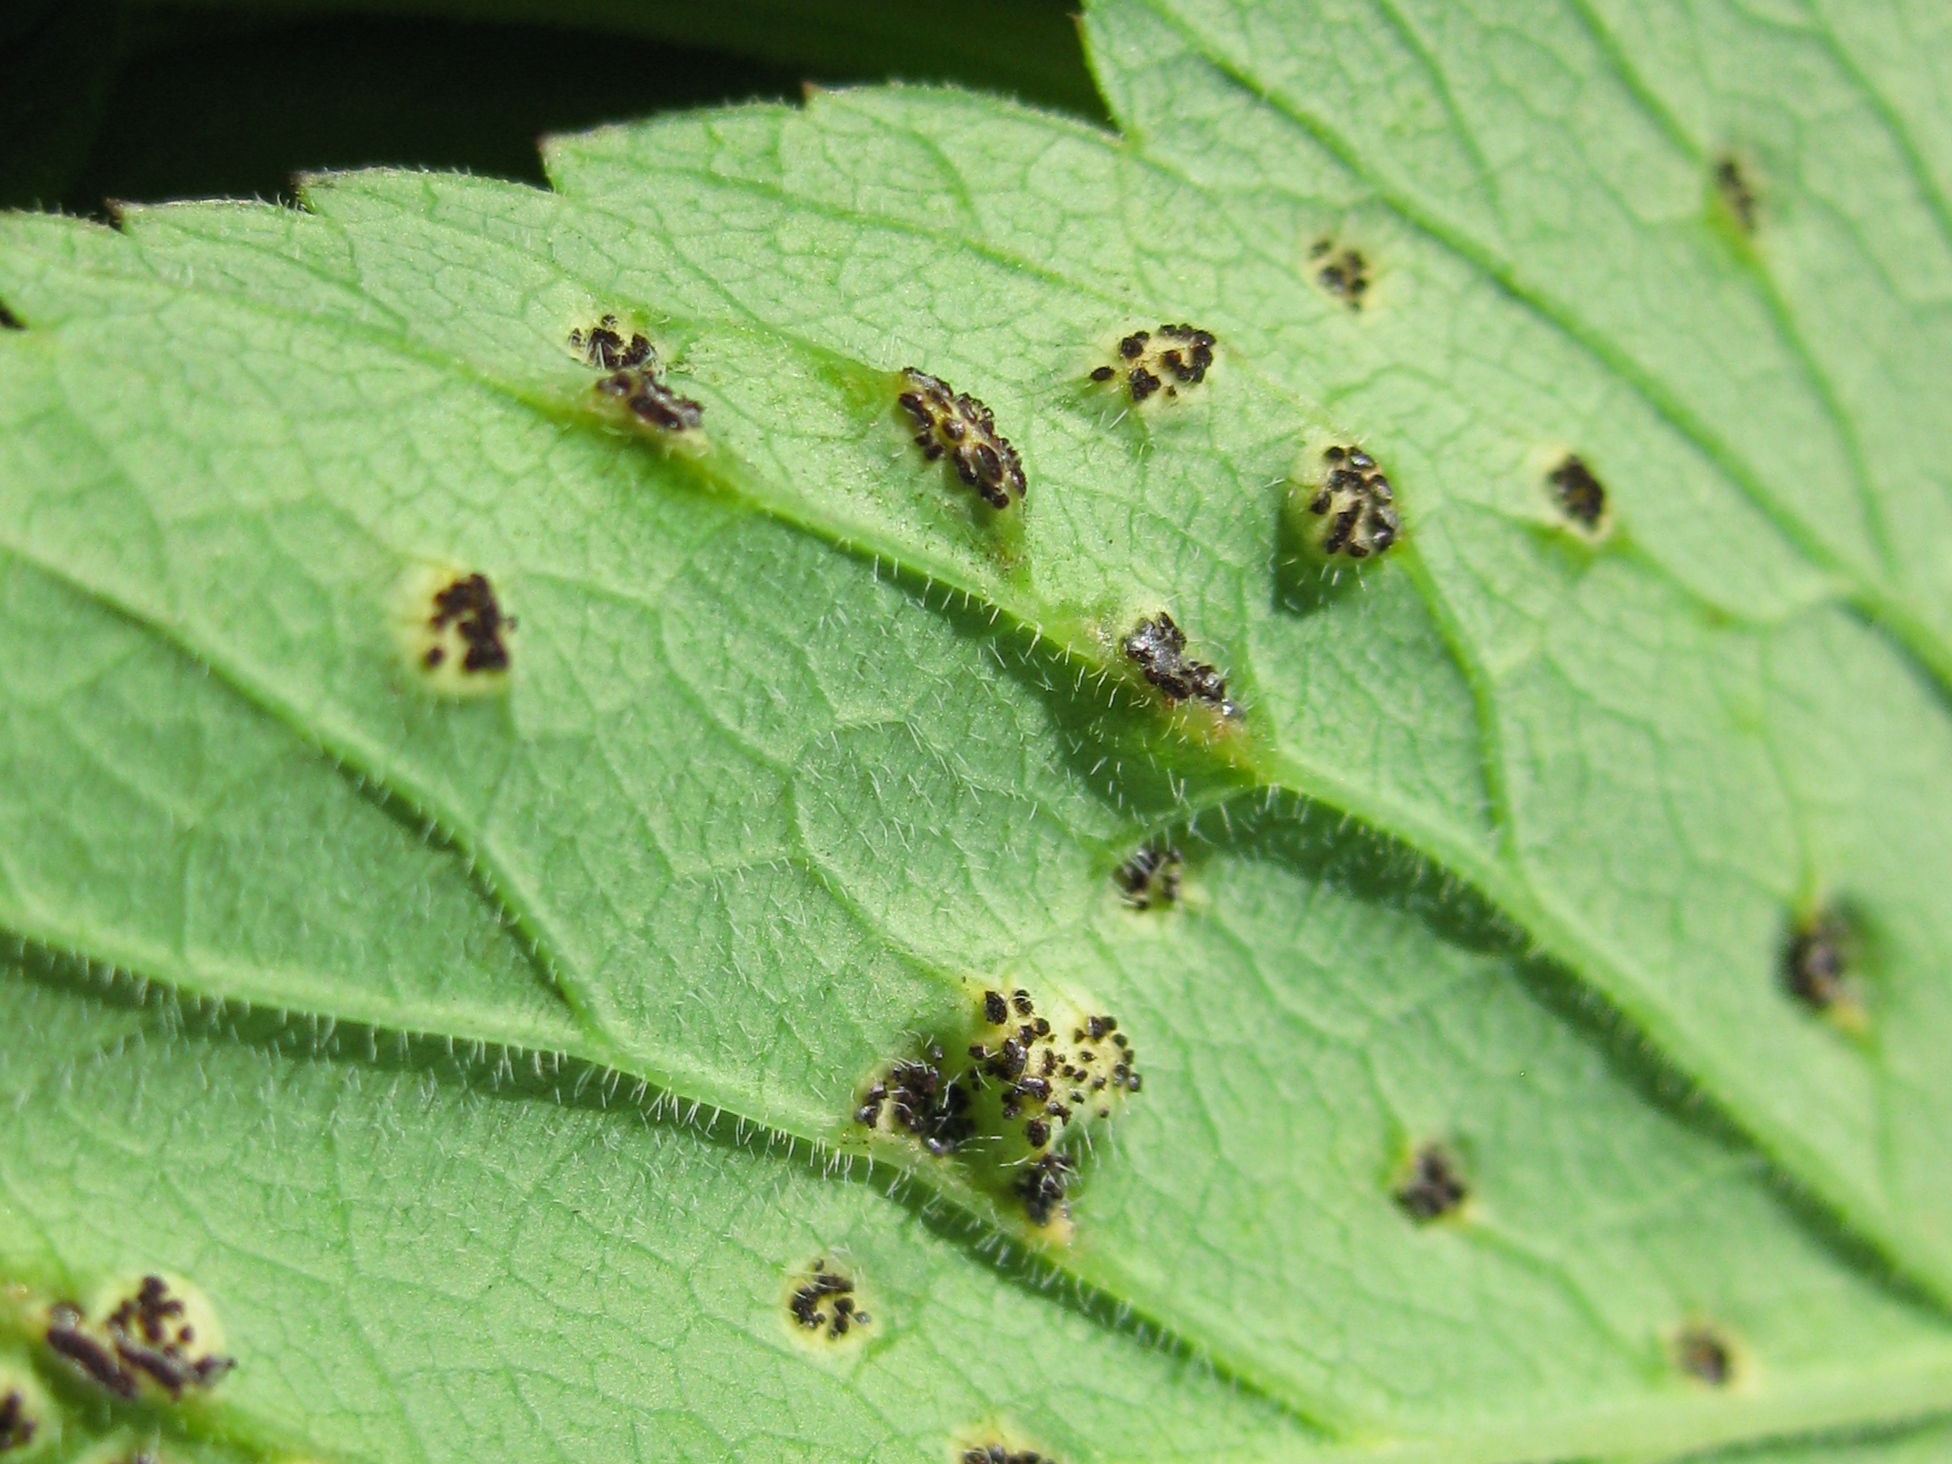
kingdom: Fungi
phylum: Basidiomycota
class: Pucciniomycetes
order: Pucciniales
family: Pucciniaceae
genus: Puccinia
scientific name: Puccinia aegopodii
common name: Ground elder rust
